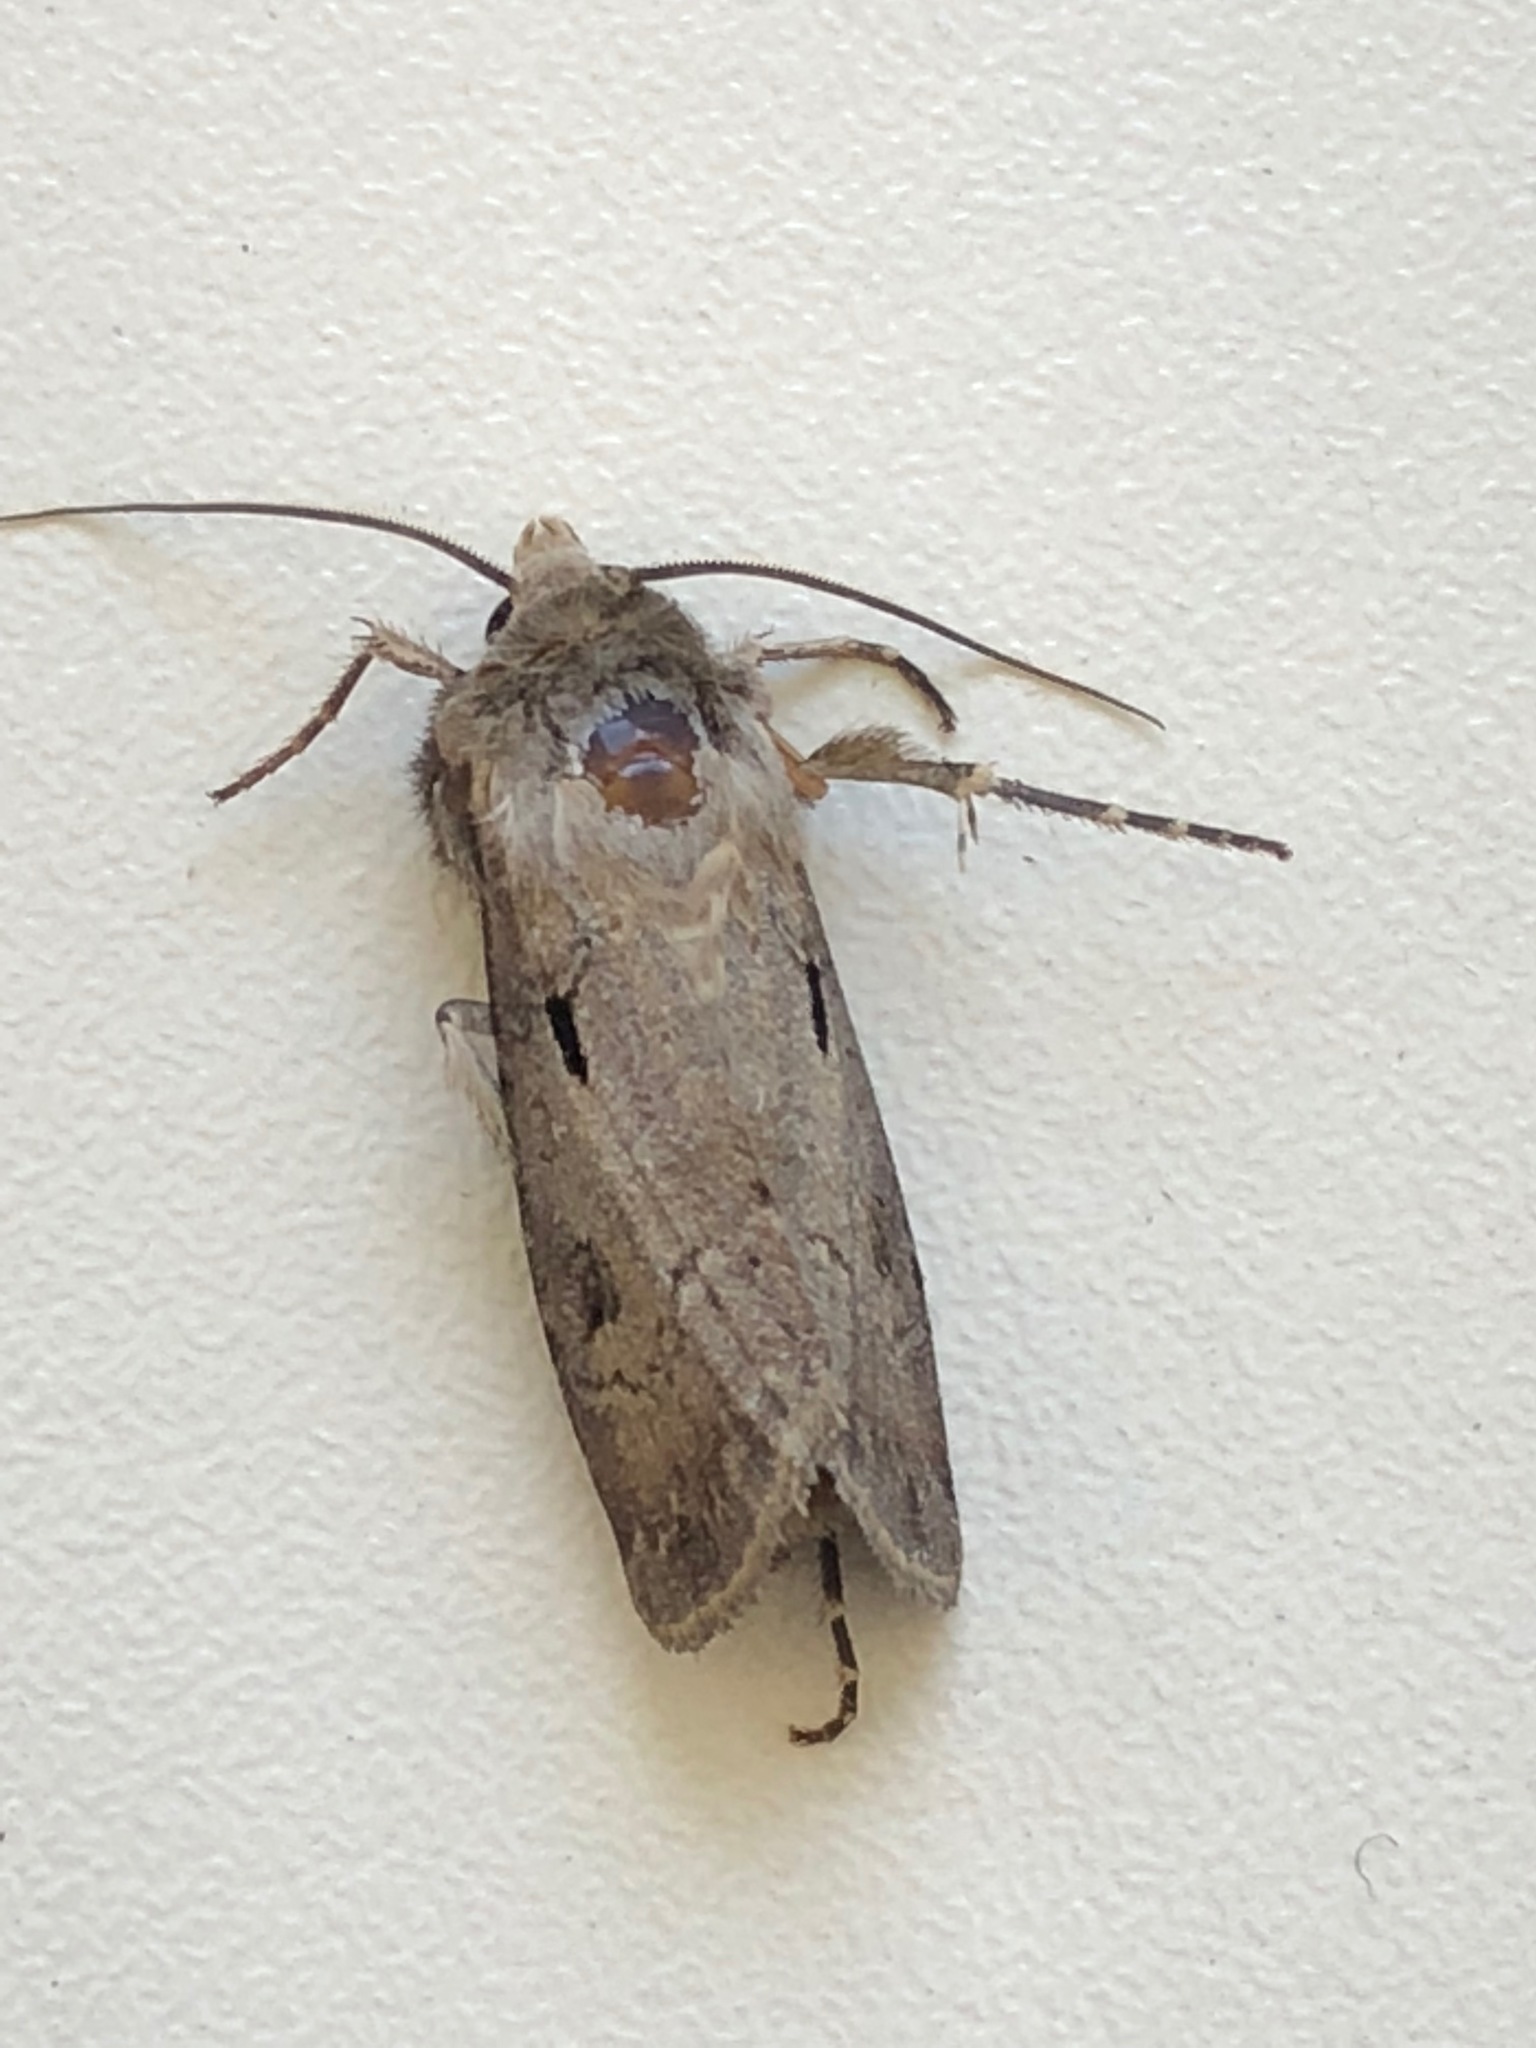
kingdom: Animalia
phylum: Arthropoda
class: Insecta
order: Lepidoptera
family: Noctuidae
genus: Agrotis
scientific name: Agrotis exclamationis
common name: Heart and dart
